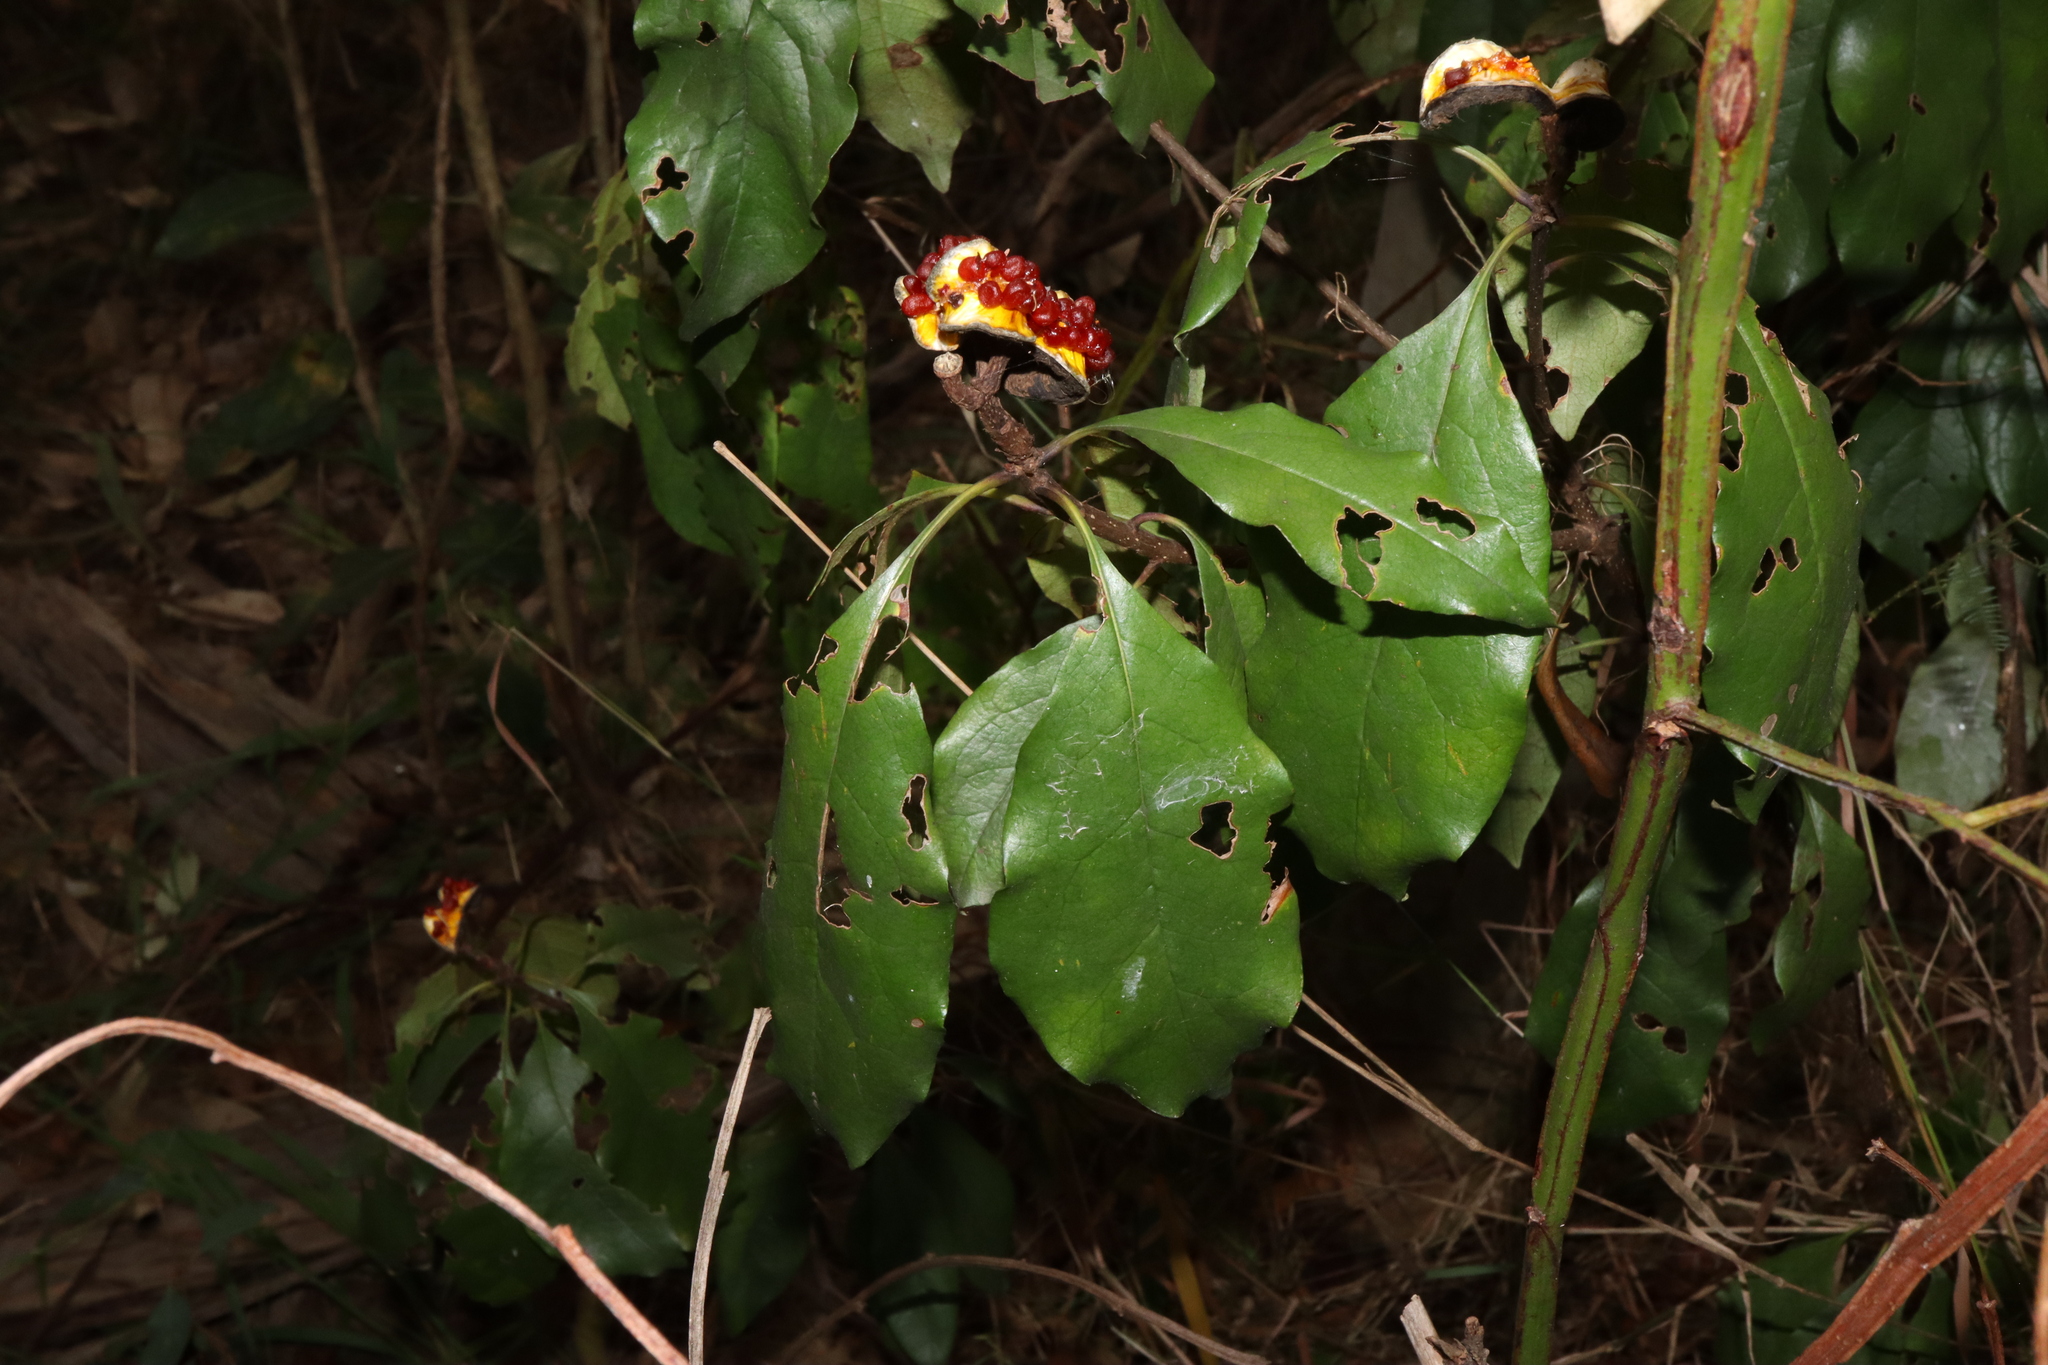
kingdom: Plantae
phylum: Tracheophyta
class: Magnoliopsida
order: Apiales
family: Pittosporaceae
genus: Pittosporum
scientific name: Pittosporum revolutum
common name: Brisbane-laurel
